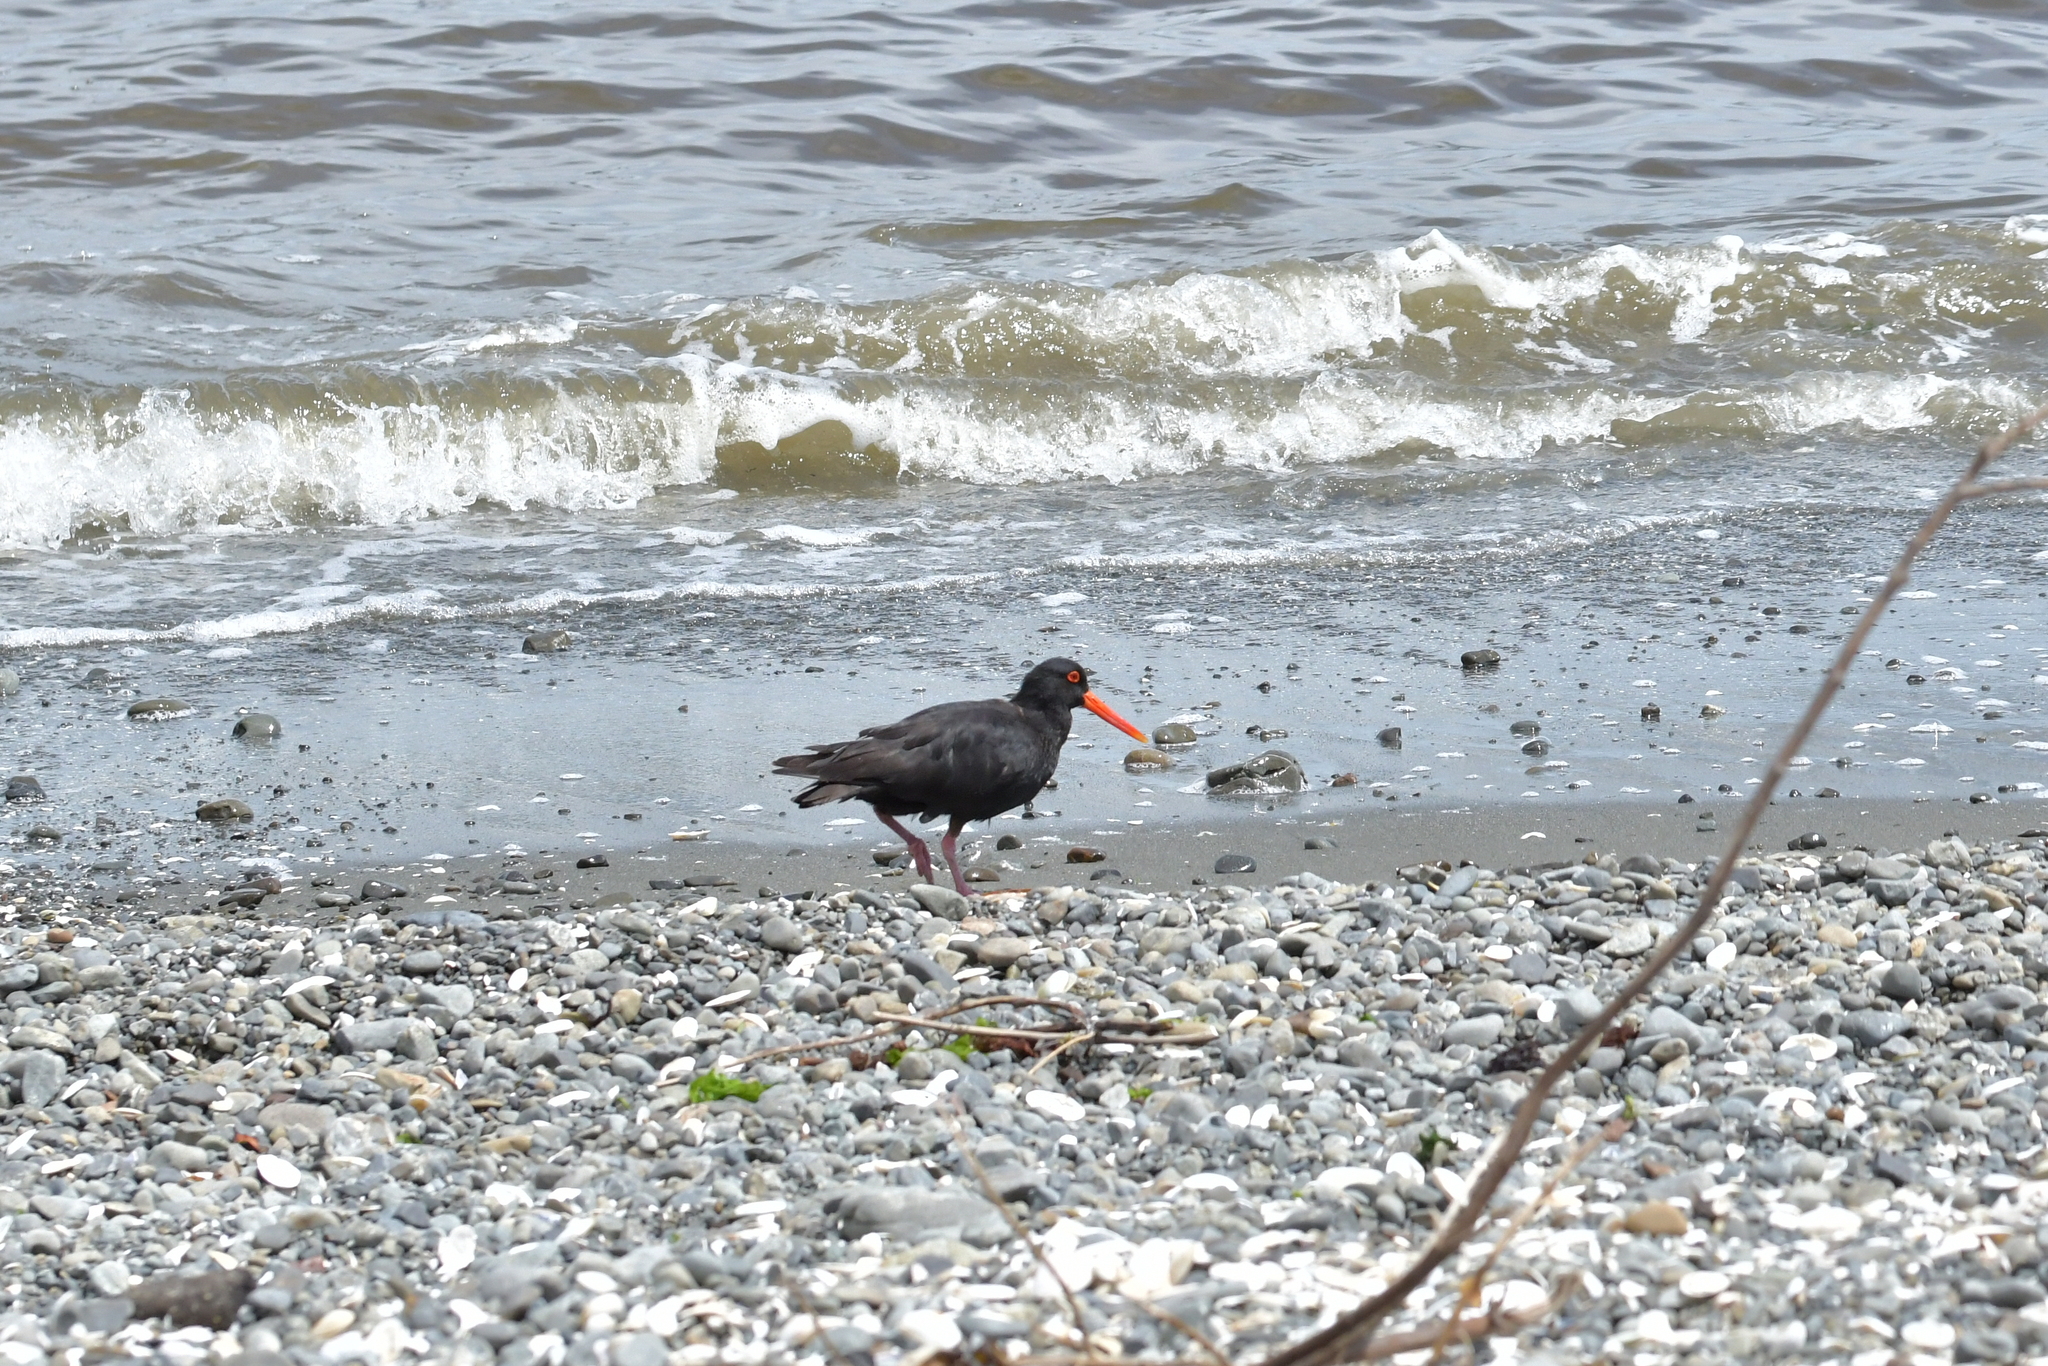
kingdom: Animalia
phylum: Chordata
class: Aves
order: Charadriiformes
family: Haematopodidae
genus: Haematopus
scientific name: Haematopus unicolor
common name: Variable oystercatcher
